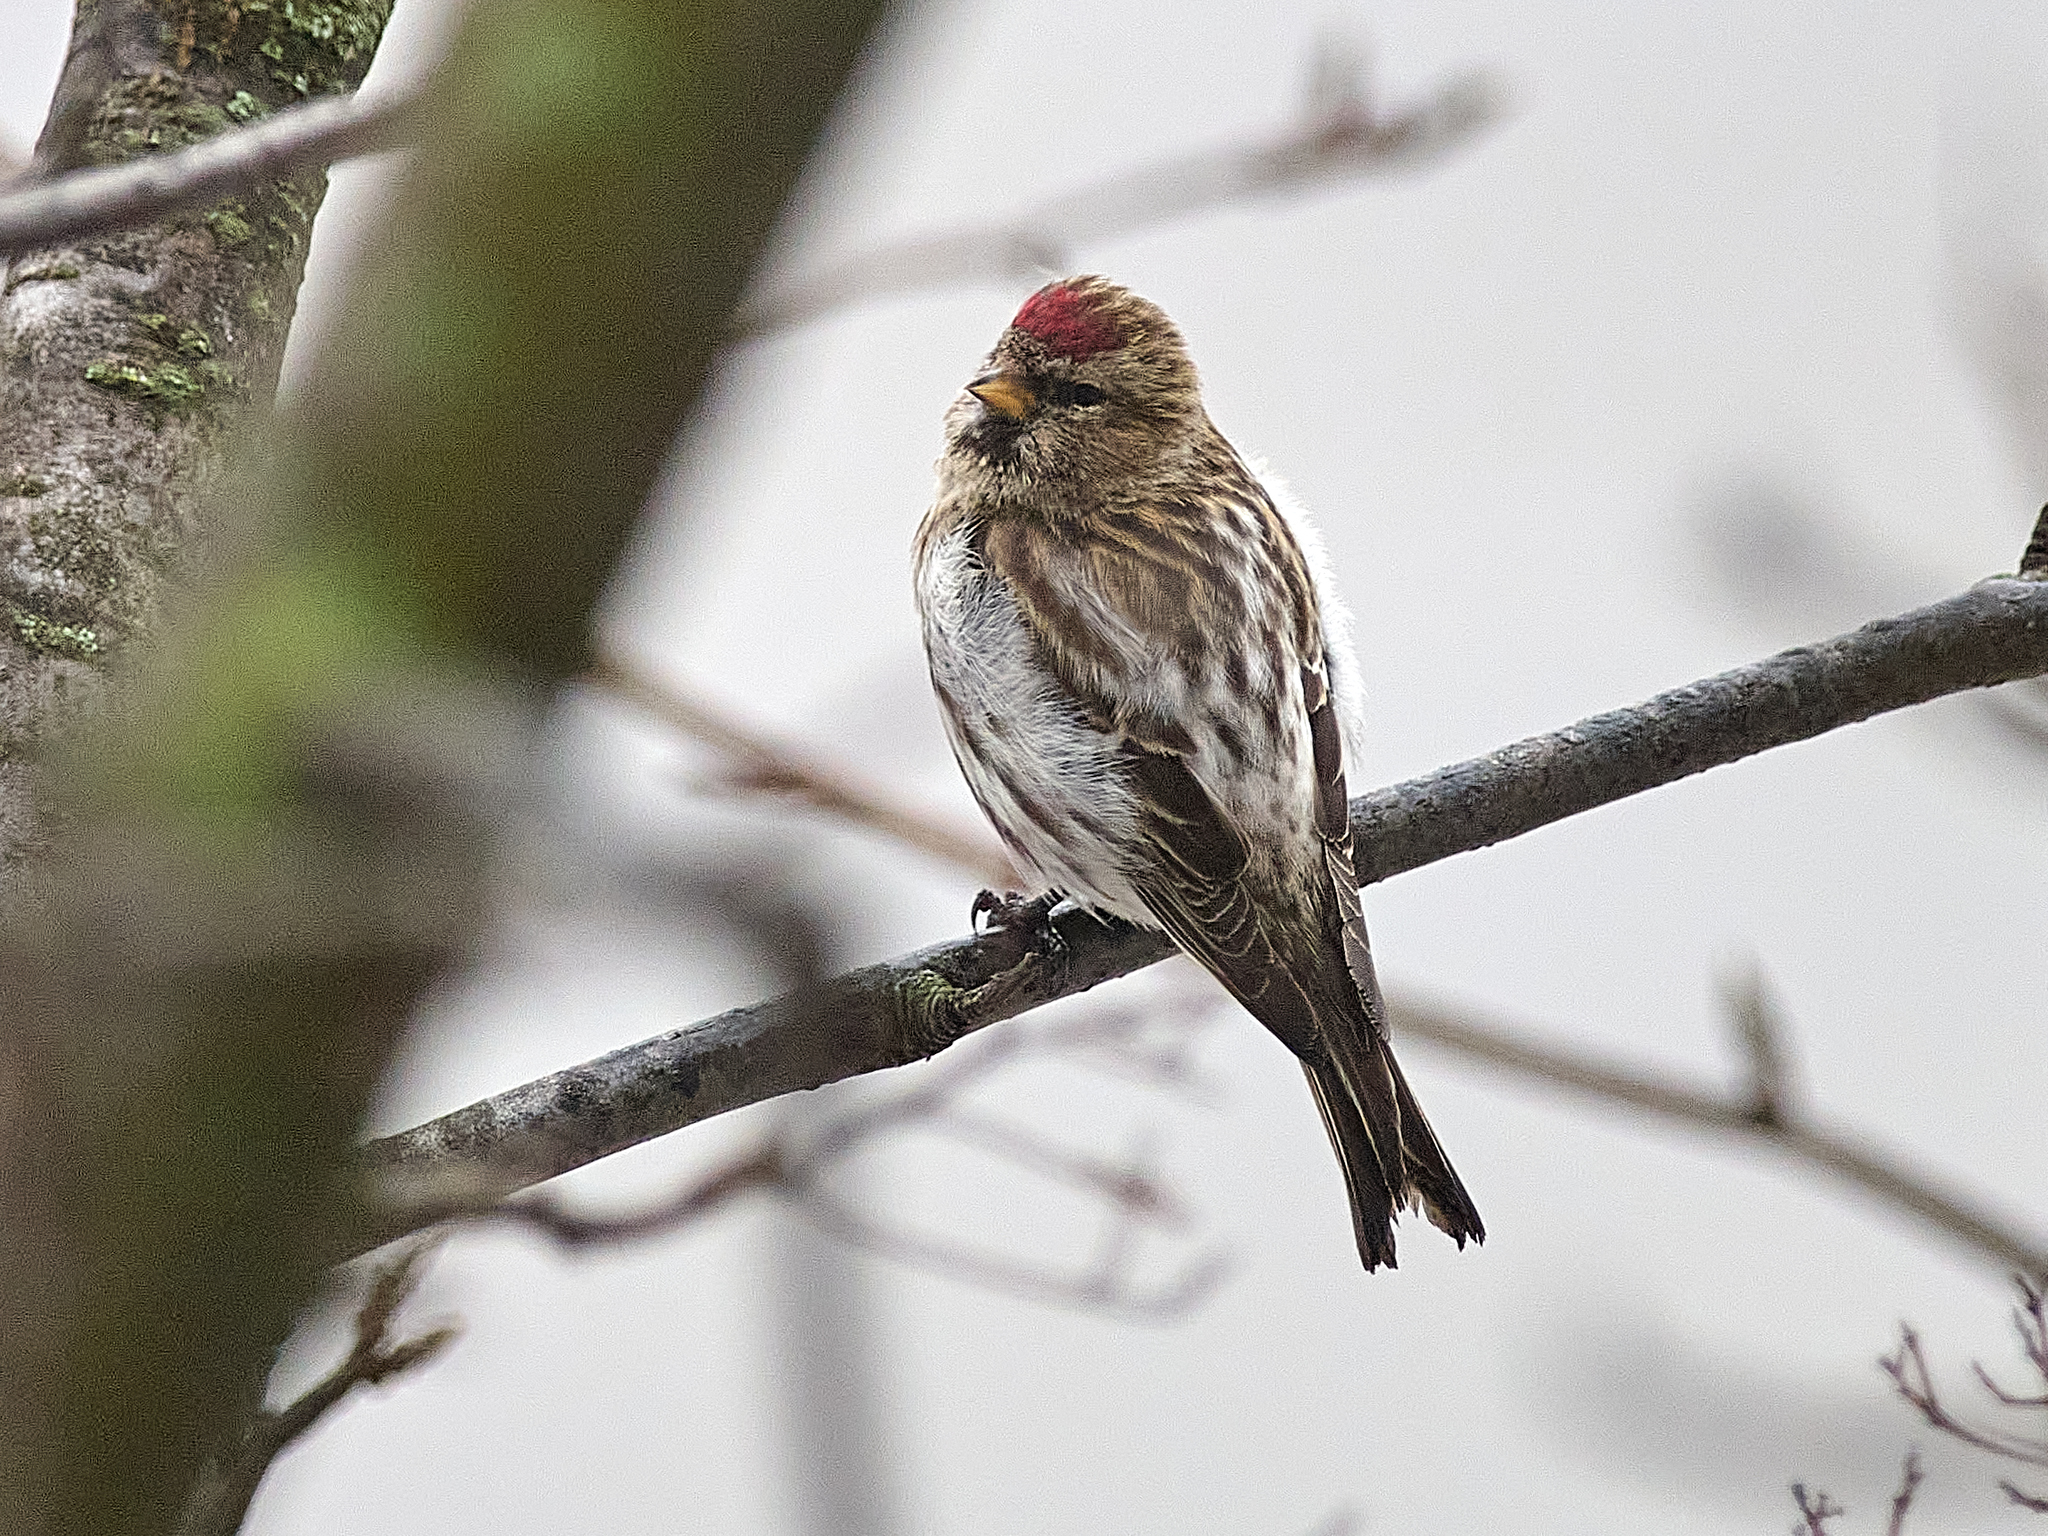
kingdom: Animalia
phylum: Chordata
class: Aves
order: Passeriformes
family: Fringillidae
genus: Acanthis
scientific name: Acanthis flammea
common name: Common redpoll
